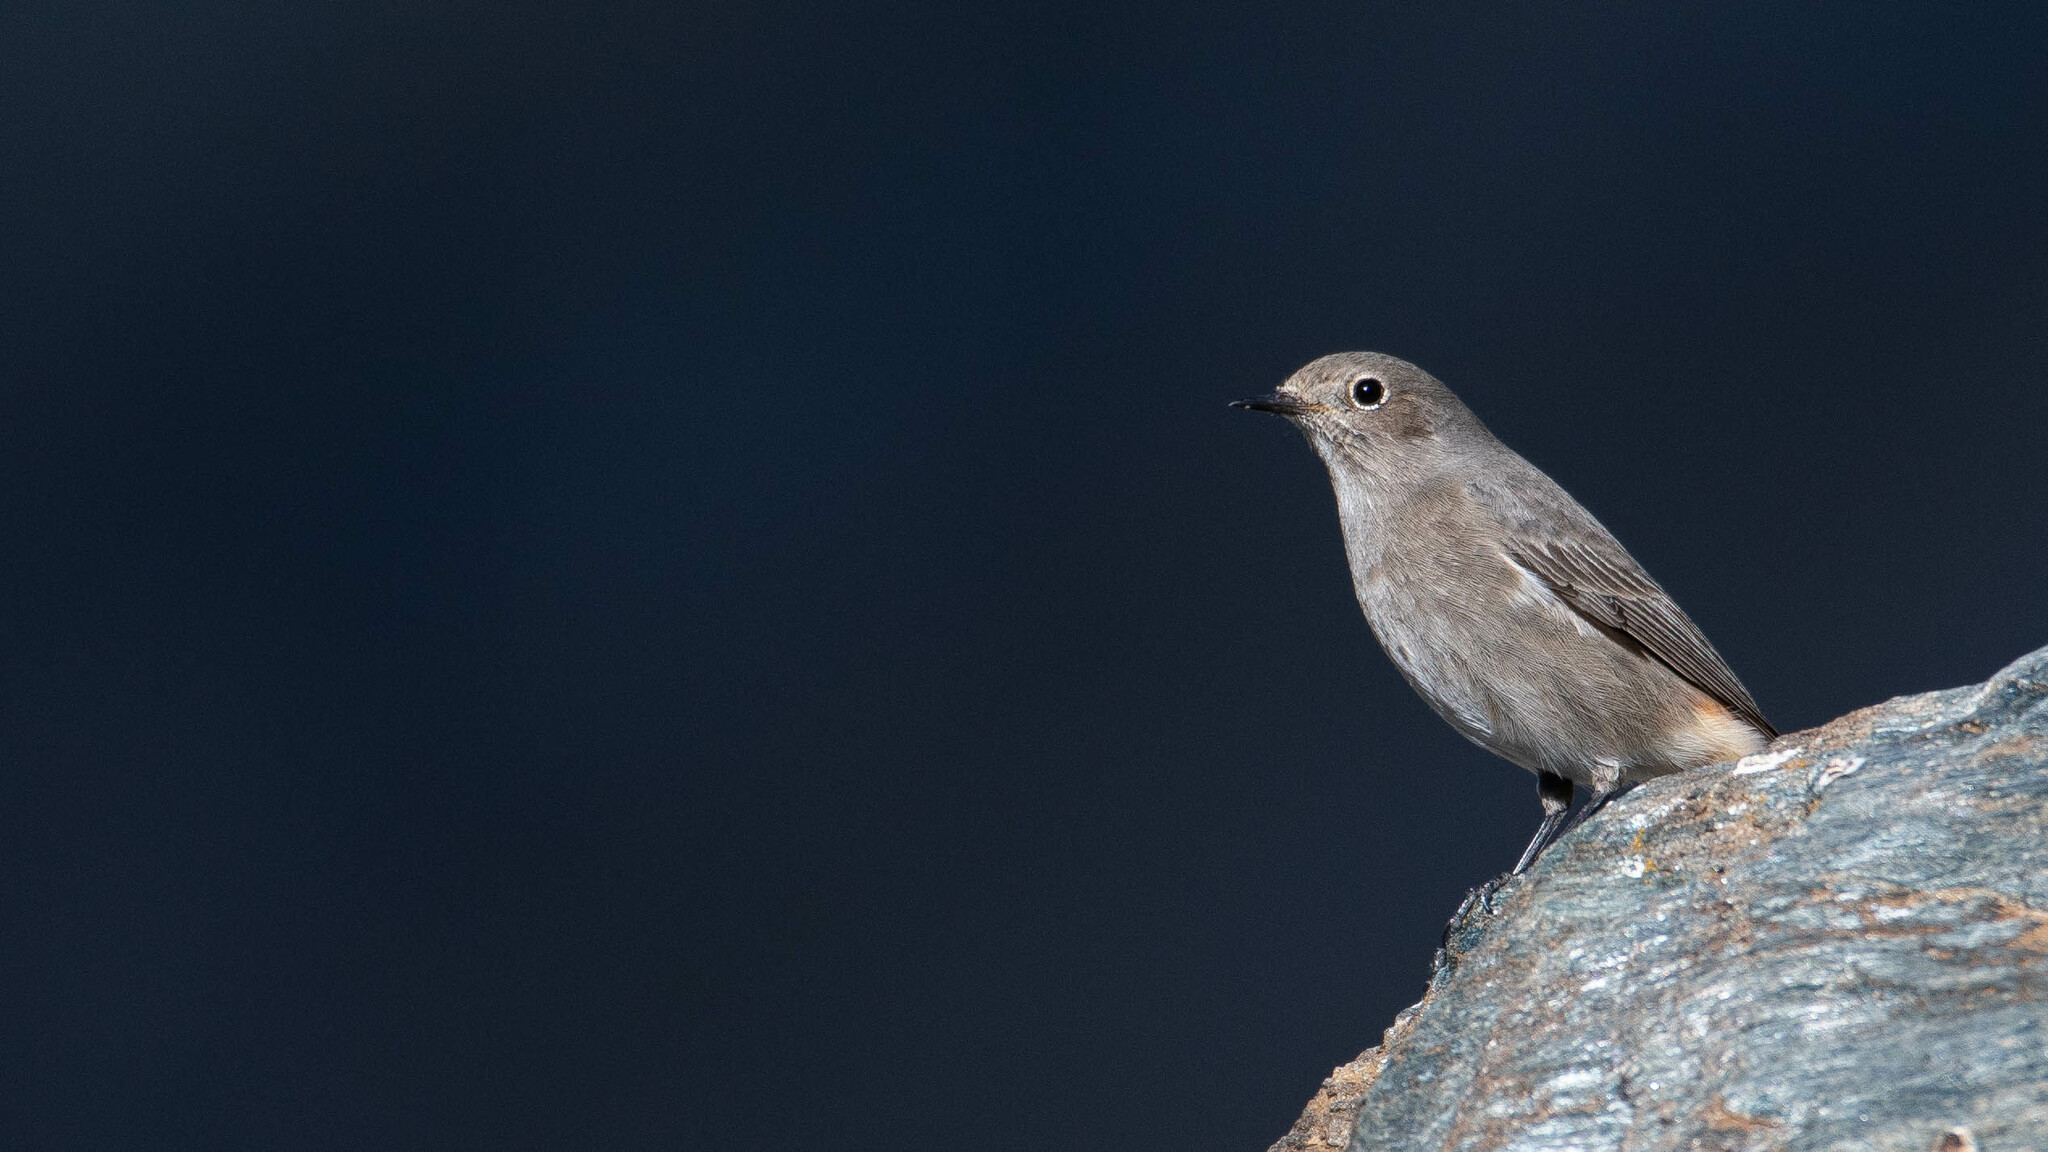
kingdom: Animalia
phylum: Chordata
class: Aves
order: Passeriformes
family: Muscicapidae
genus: Phoenicurus
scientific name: Phoenicurus ochruros
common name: Black redstart
